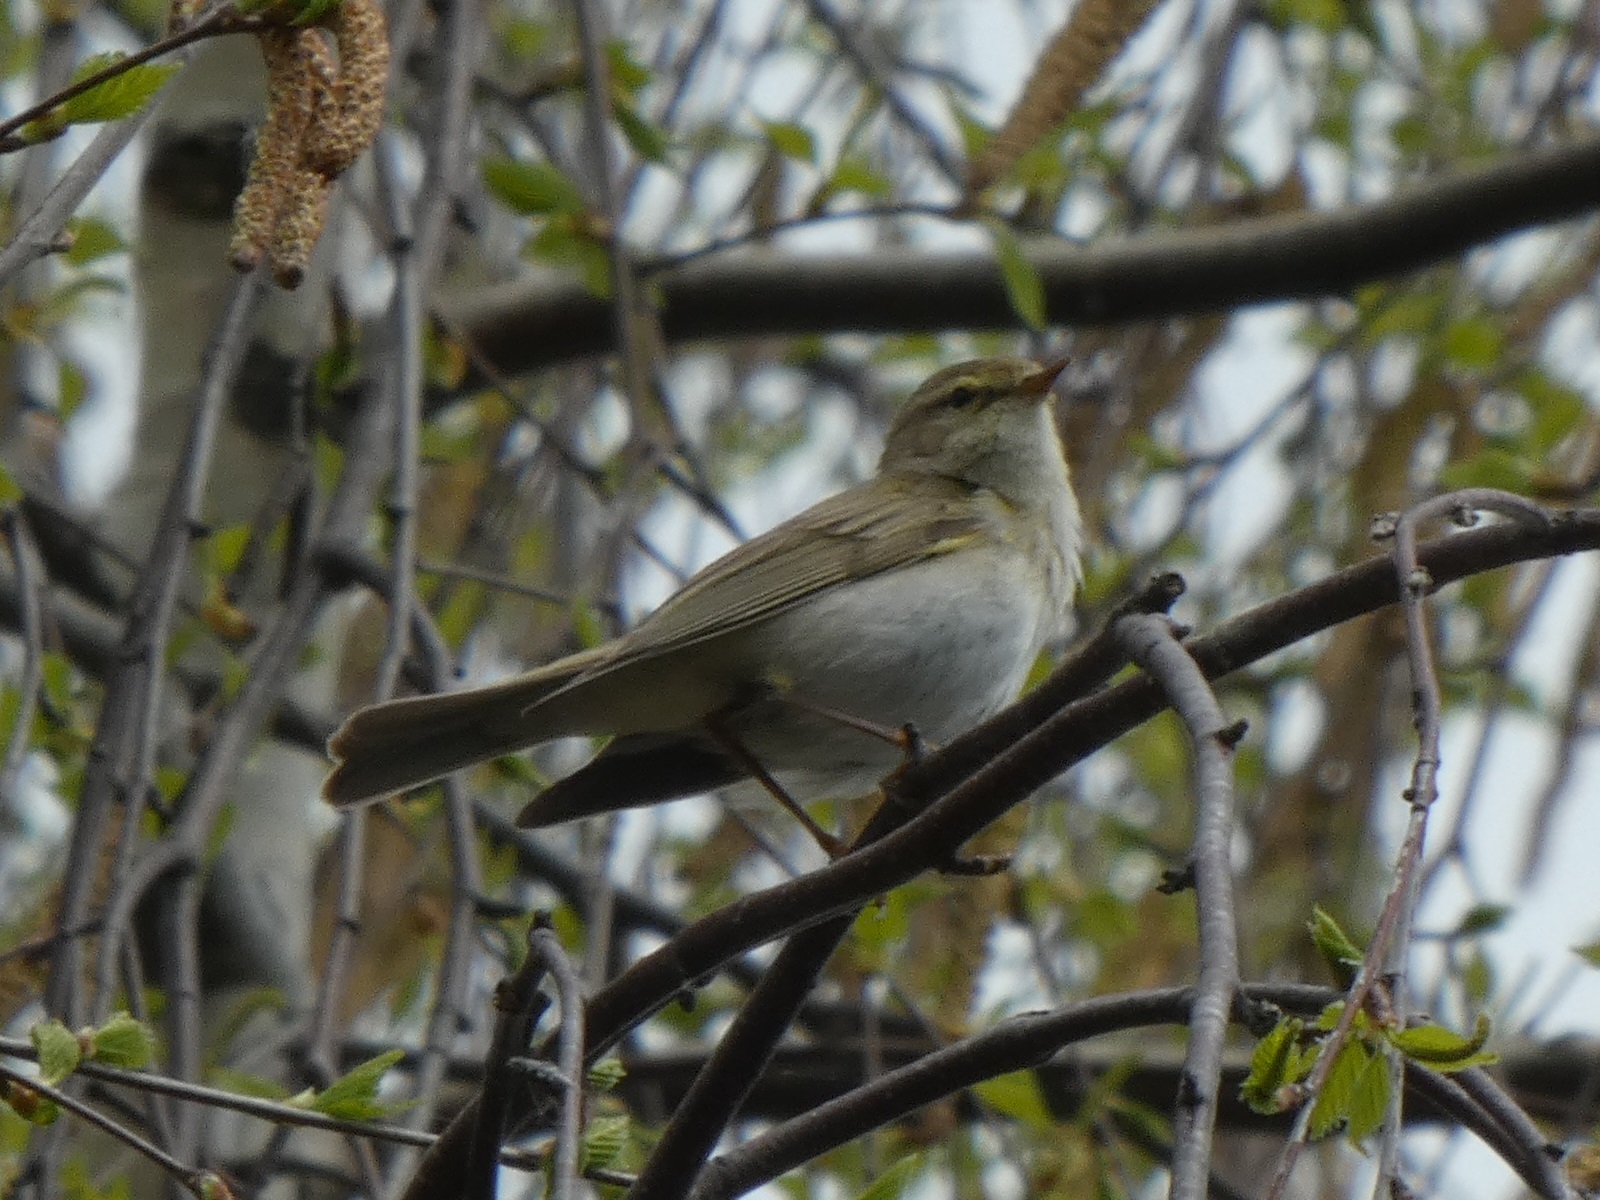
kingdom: Animalia
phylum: Chordata
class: Aves
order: Passeriformes
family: Phylloscopidae
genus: Phylloscopus
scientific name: Phylloscopus trochilus
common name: Willow warbler
